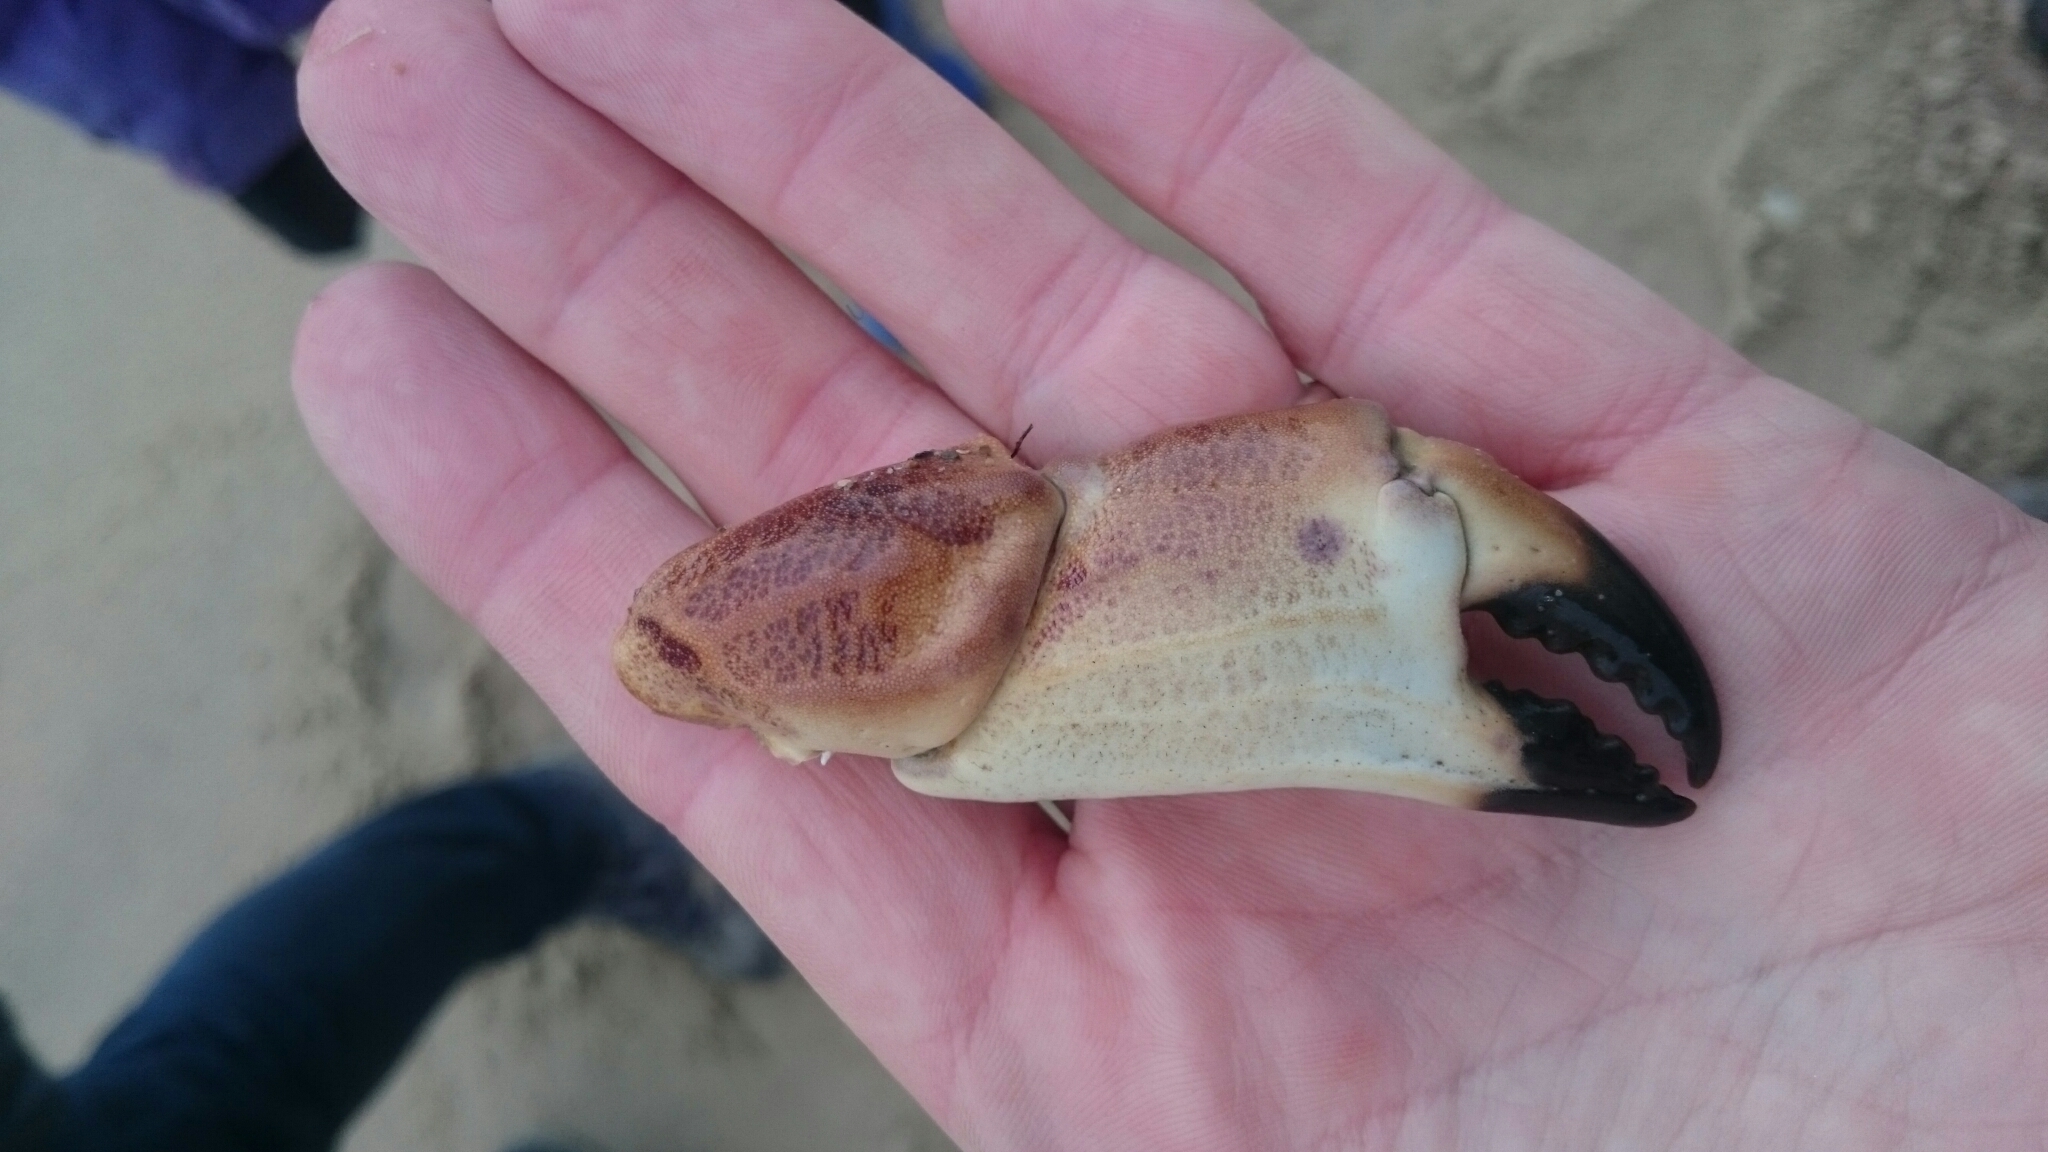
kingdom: Animalia
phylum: Arthropoda
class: Malacostraca
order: Decapoda
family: Cancridae
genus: Cancer
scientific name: Cancer pagurus
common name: Edible crab
